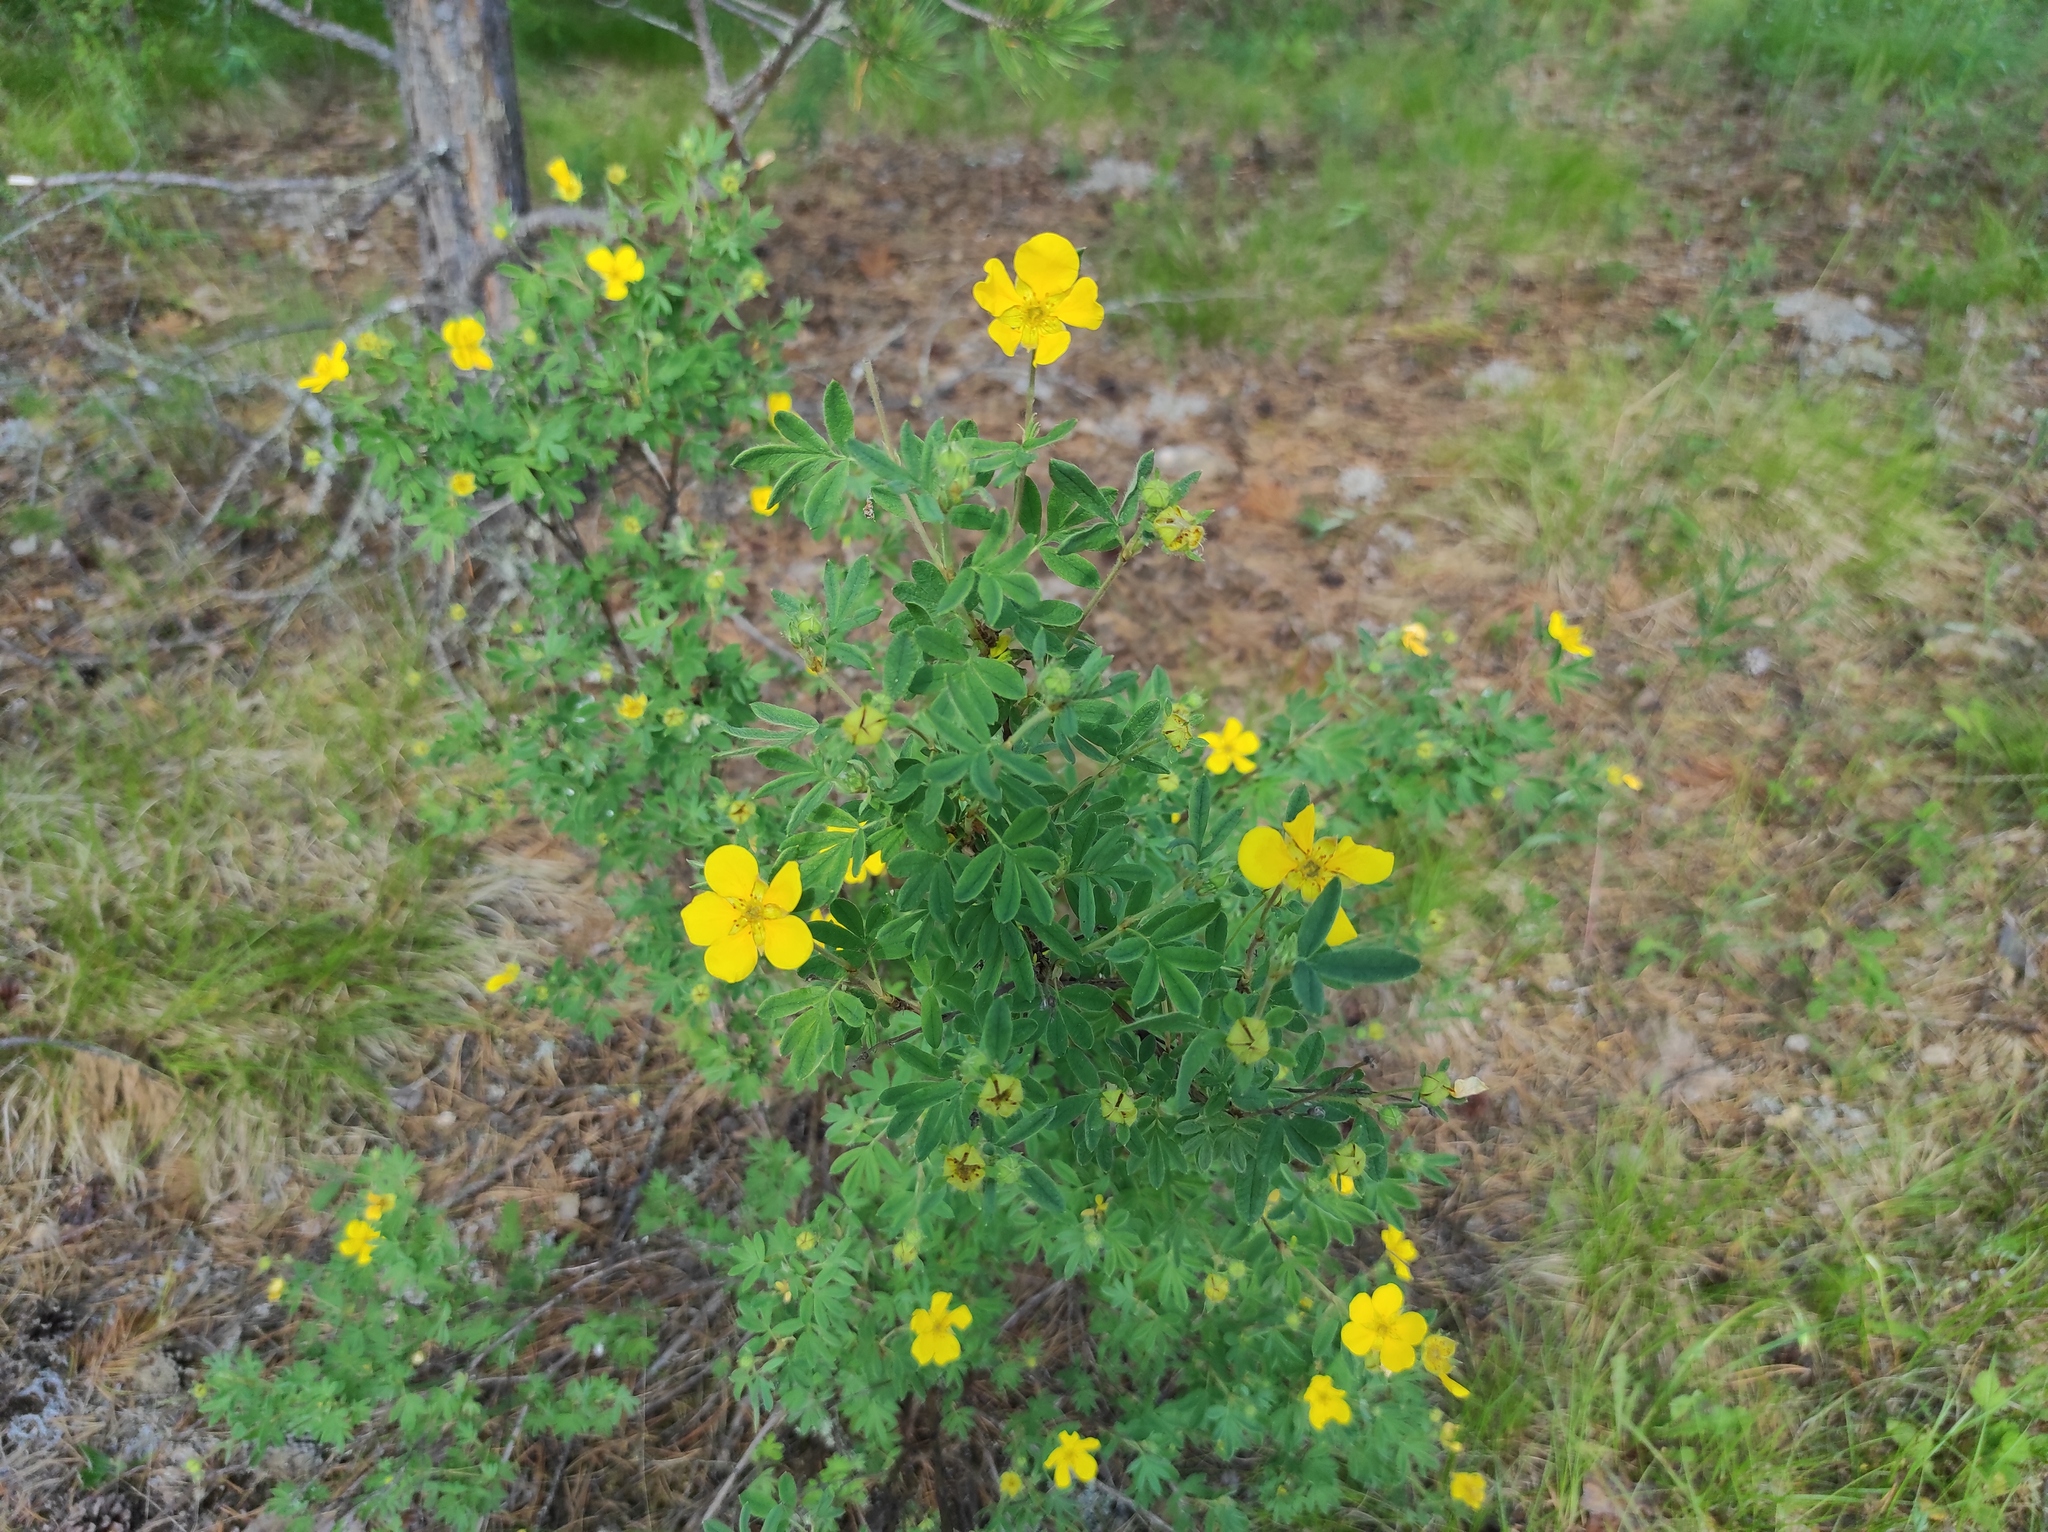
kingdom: Plantae
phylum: Tracheophyta
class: Magnoliopsida
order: Rosales
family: Rosaceae
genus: Dasiphora
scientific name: Dasiphora fruticosa
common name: Shrubby cinquefoil
